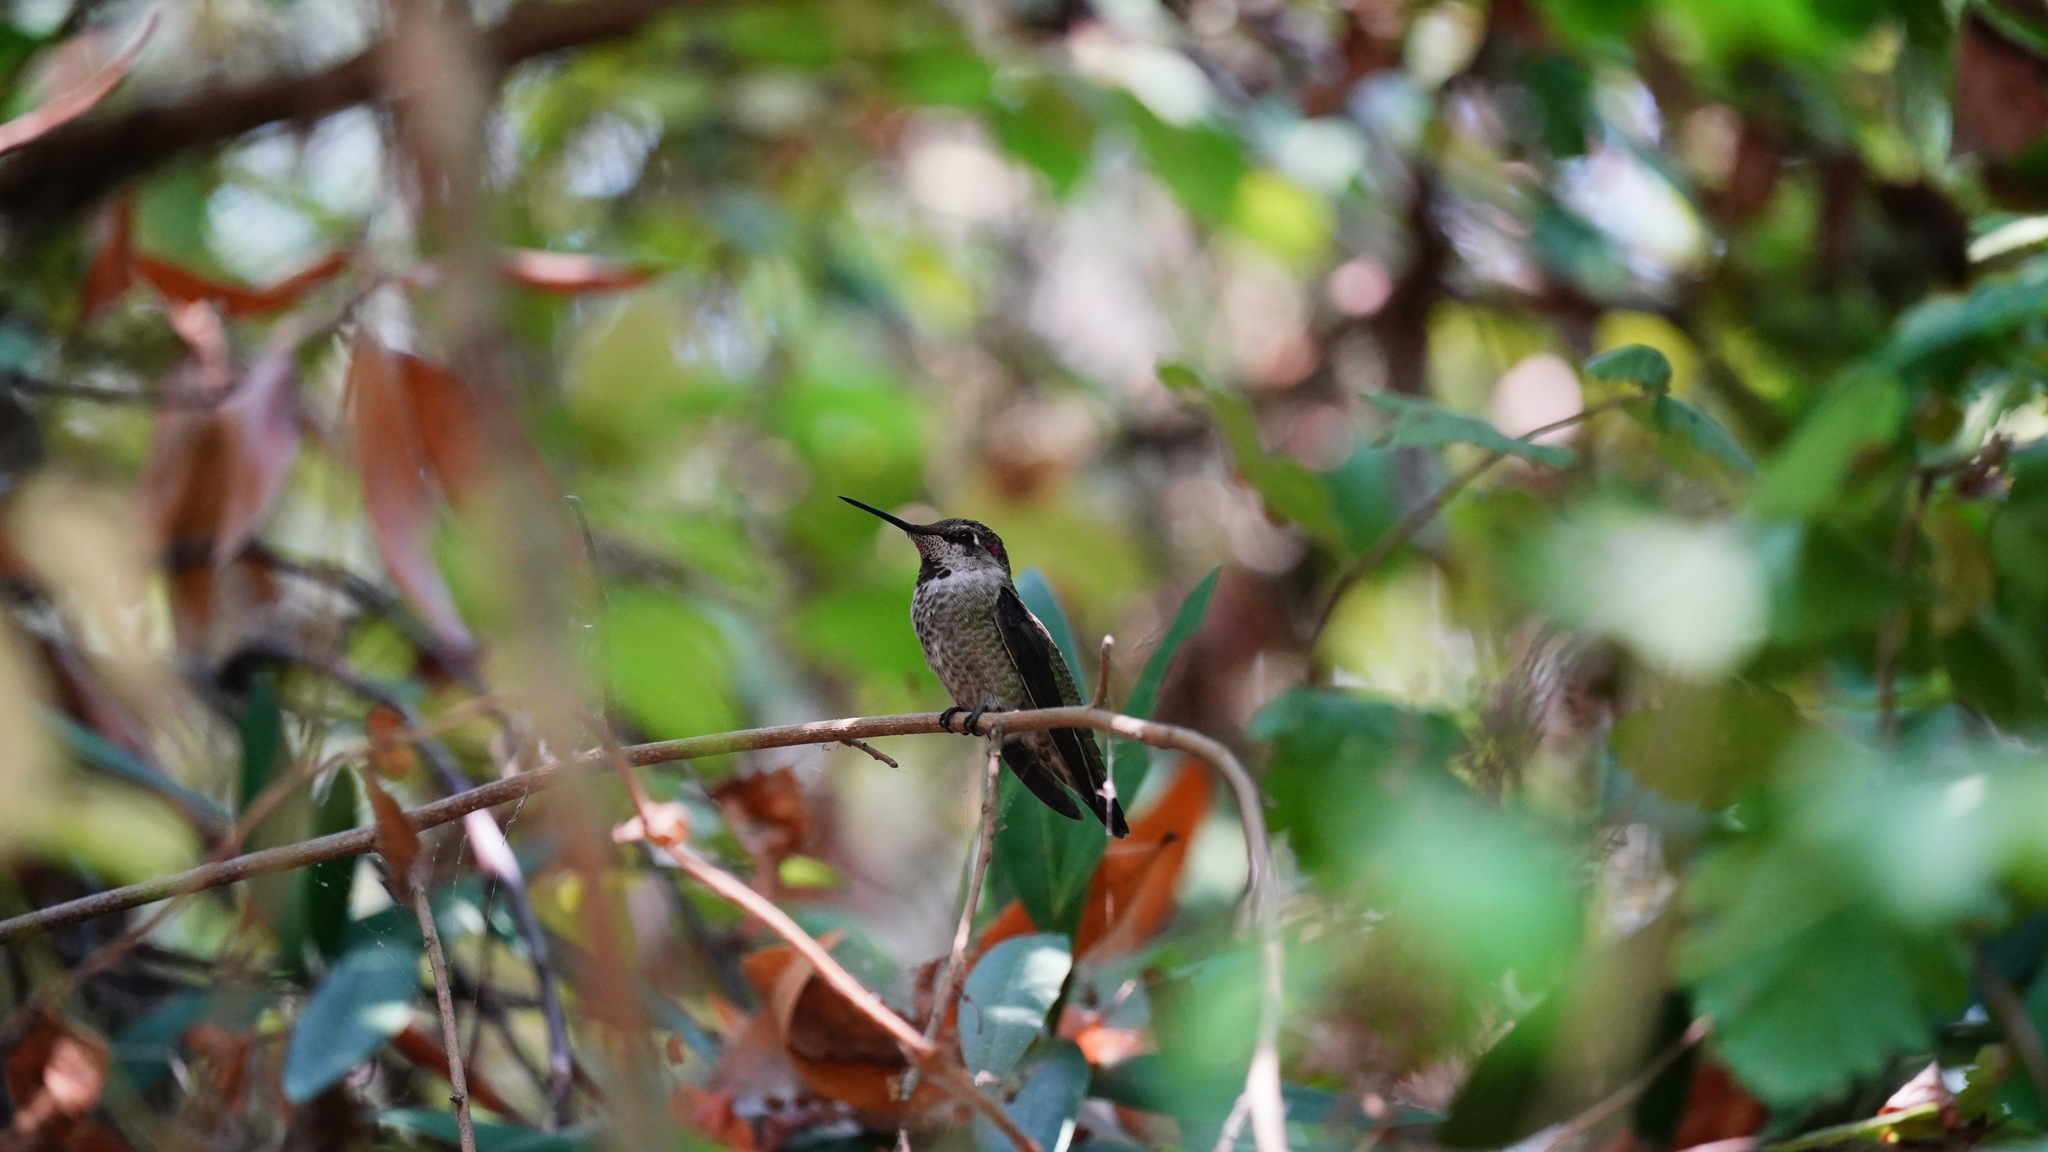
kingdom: Animalia
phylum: Chordata
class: Aves
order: Apodiformes
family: Trochilidae
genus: Calypte
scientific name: Calypte anna
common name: Anna's hummingbird
